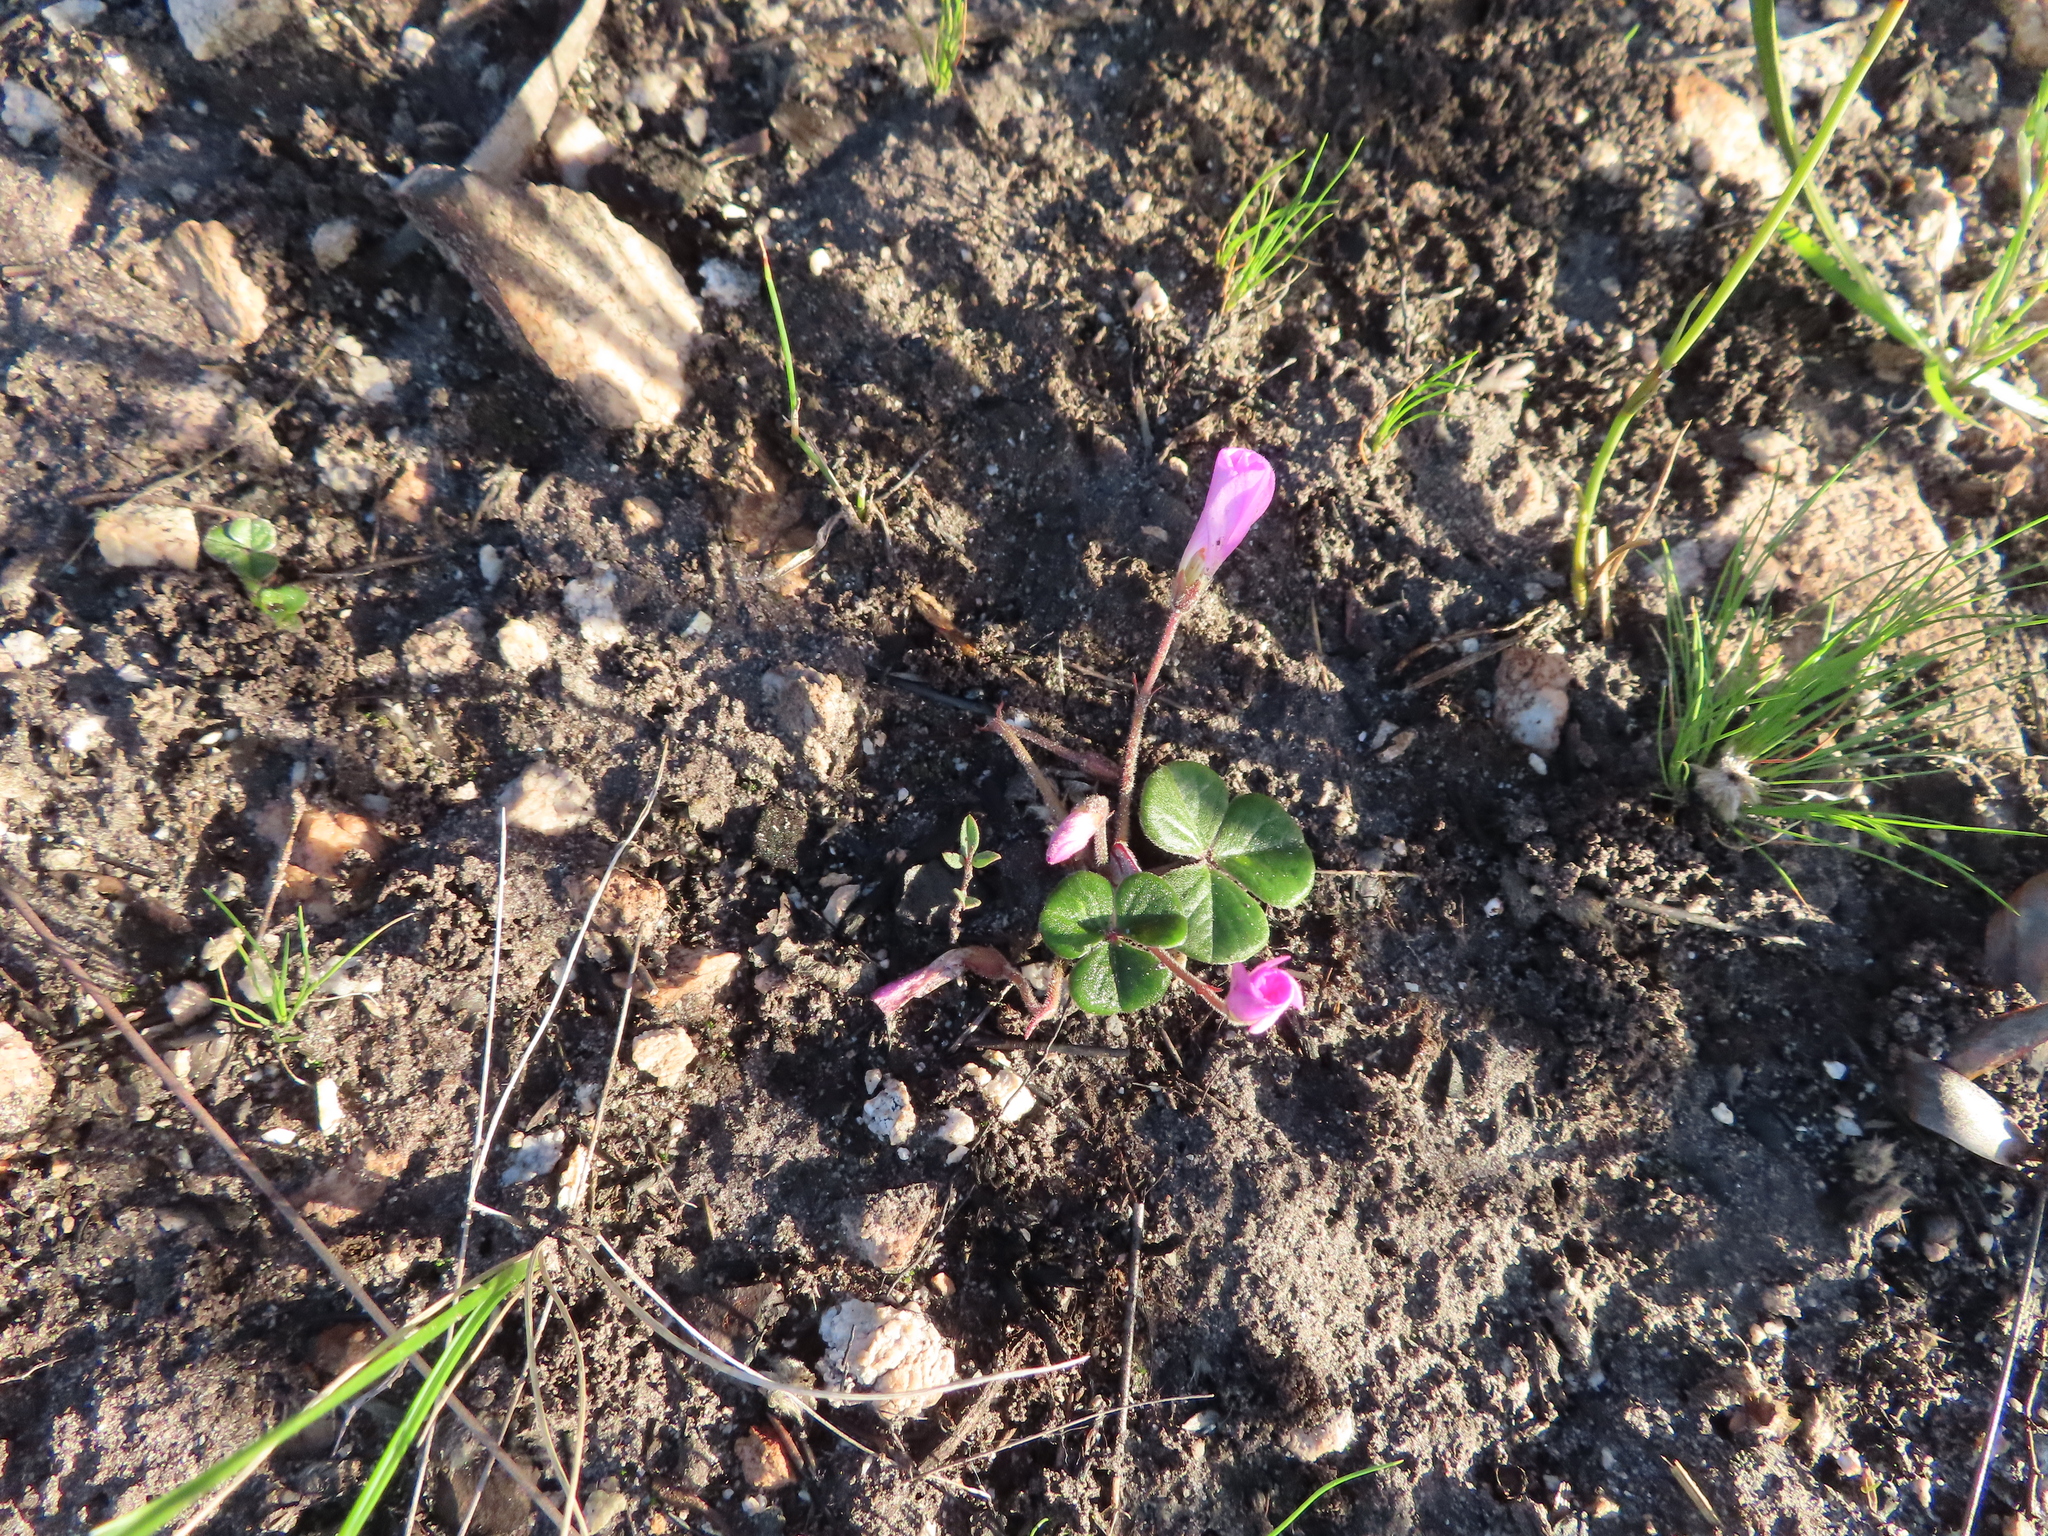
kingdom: Plantae
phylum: Tracheophyta
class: Magnoliopsida
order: Oxalidales
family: Oxalidaceae
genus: Oxalis
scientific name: Oxalis truncatula
